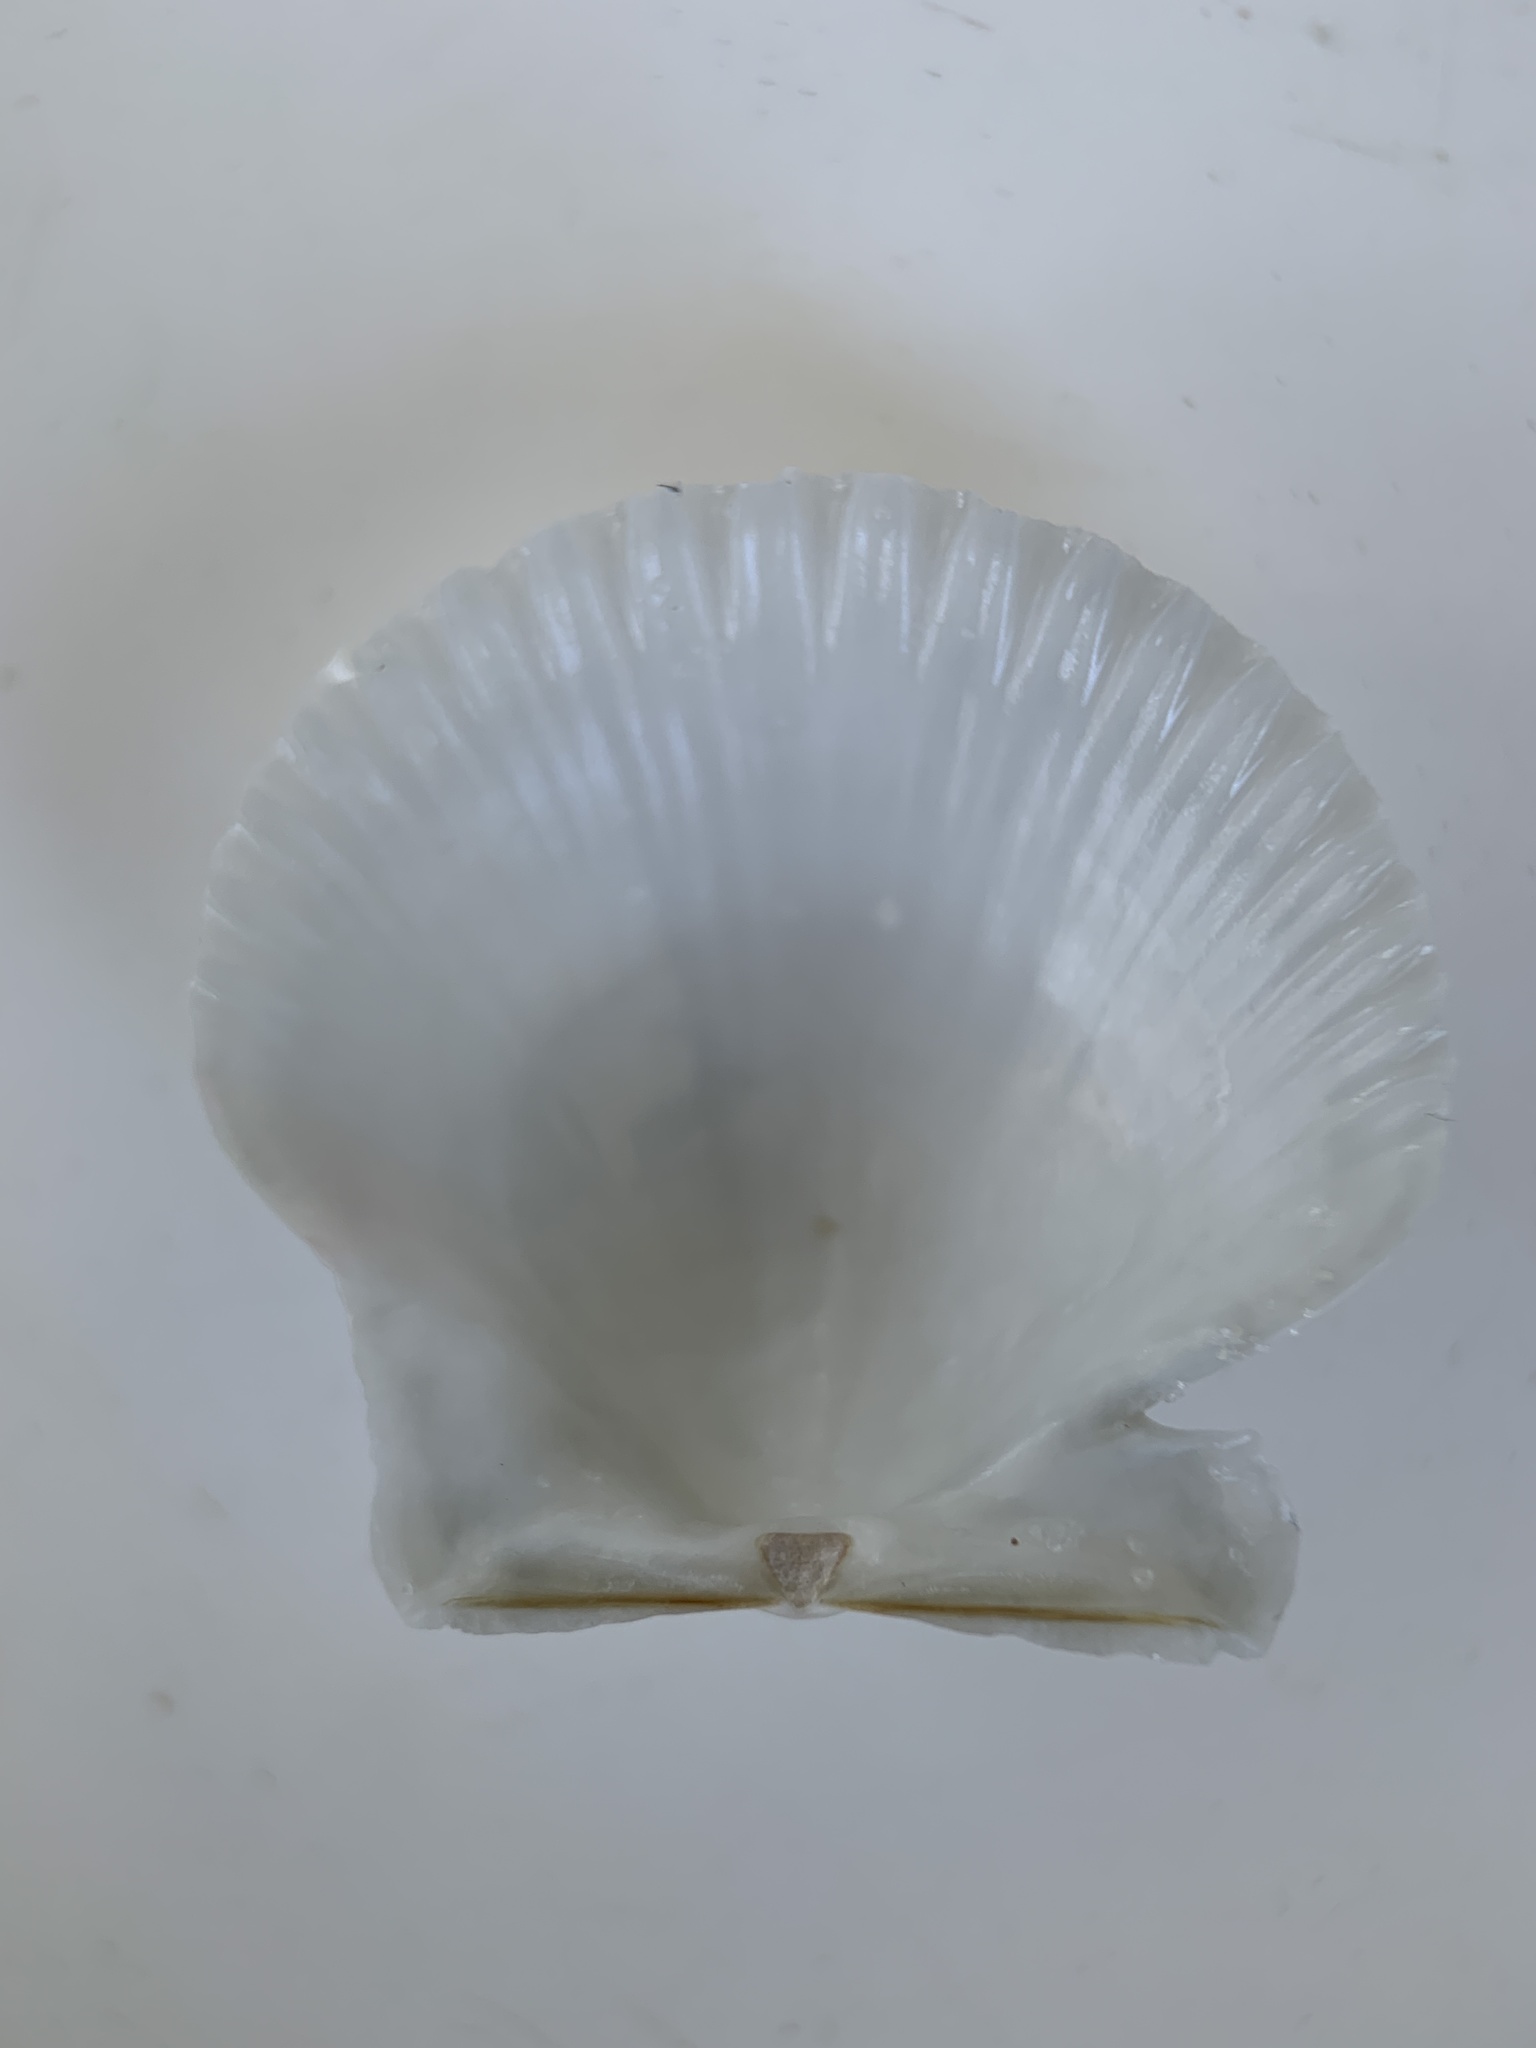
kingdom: Animalia
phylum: Mollusca
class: Bivalvia
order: Pectinida
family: Pectinidae
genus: Argopecten
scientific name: Argopecten irradians
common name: Atlantic bay scallop
